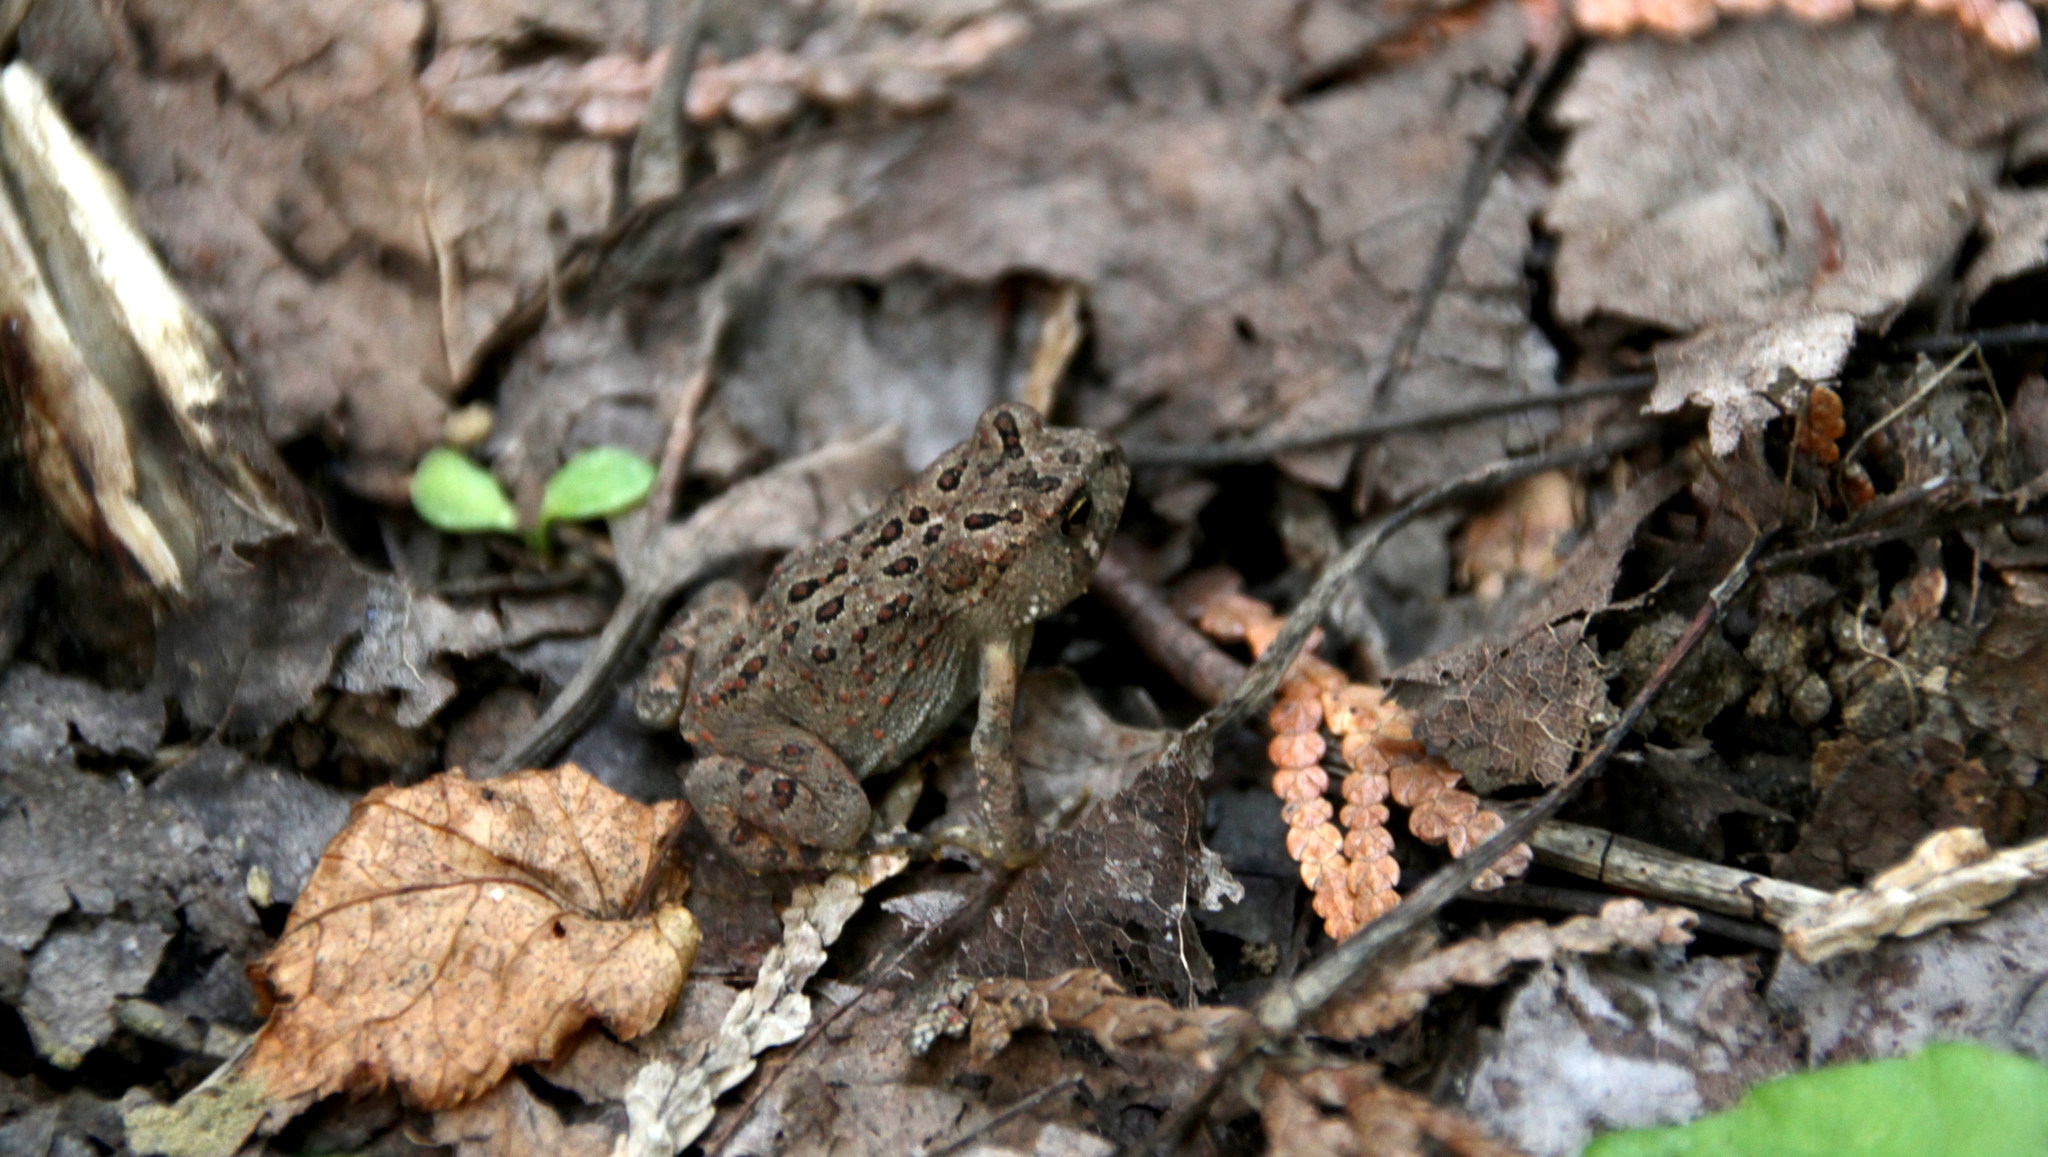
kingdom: Animalia
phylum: Chordata
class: Amphibia
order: Anura
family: Bufonidae
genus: Anaxyrus
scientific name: Anaxyrus americanus
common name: American toad
